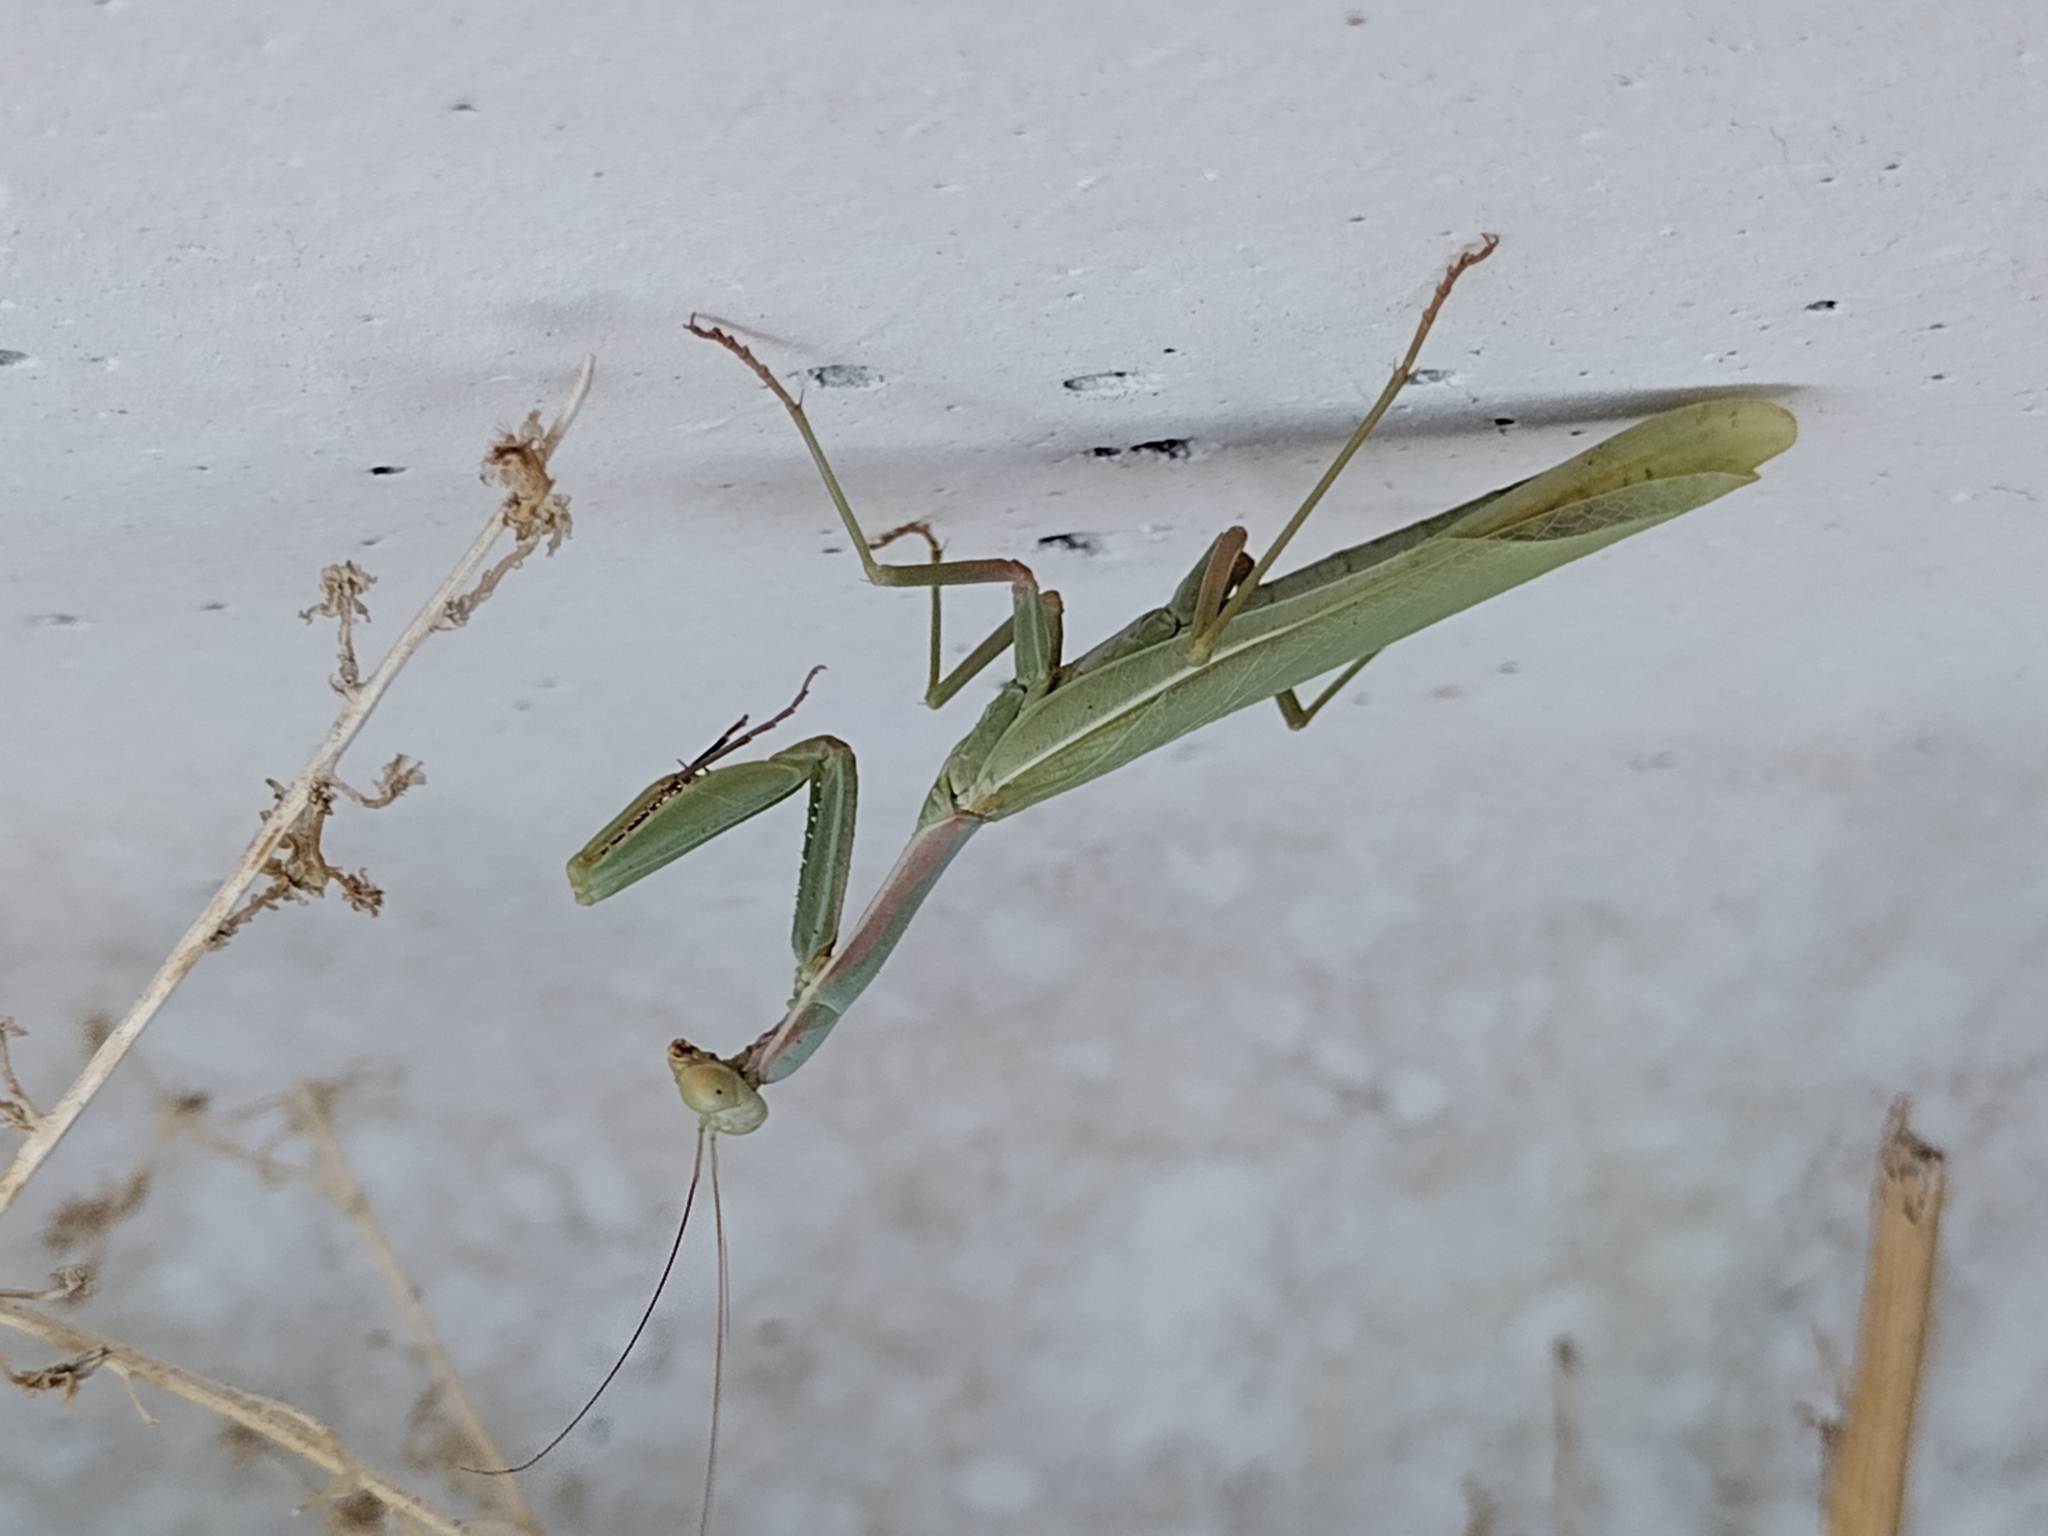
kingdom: Animalia
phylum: Arthropoda
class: Insecta
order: Mantodea
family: Eremiaphilidae
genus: Iris
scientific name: Iris oratoria
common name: Mediterranean mantis
